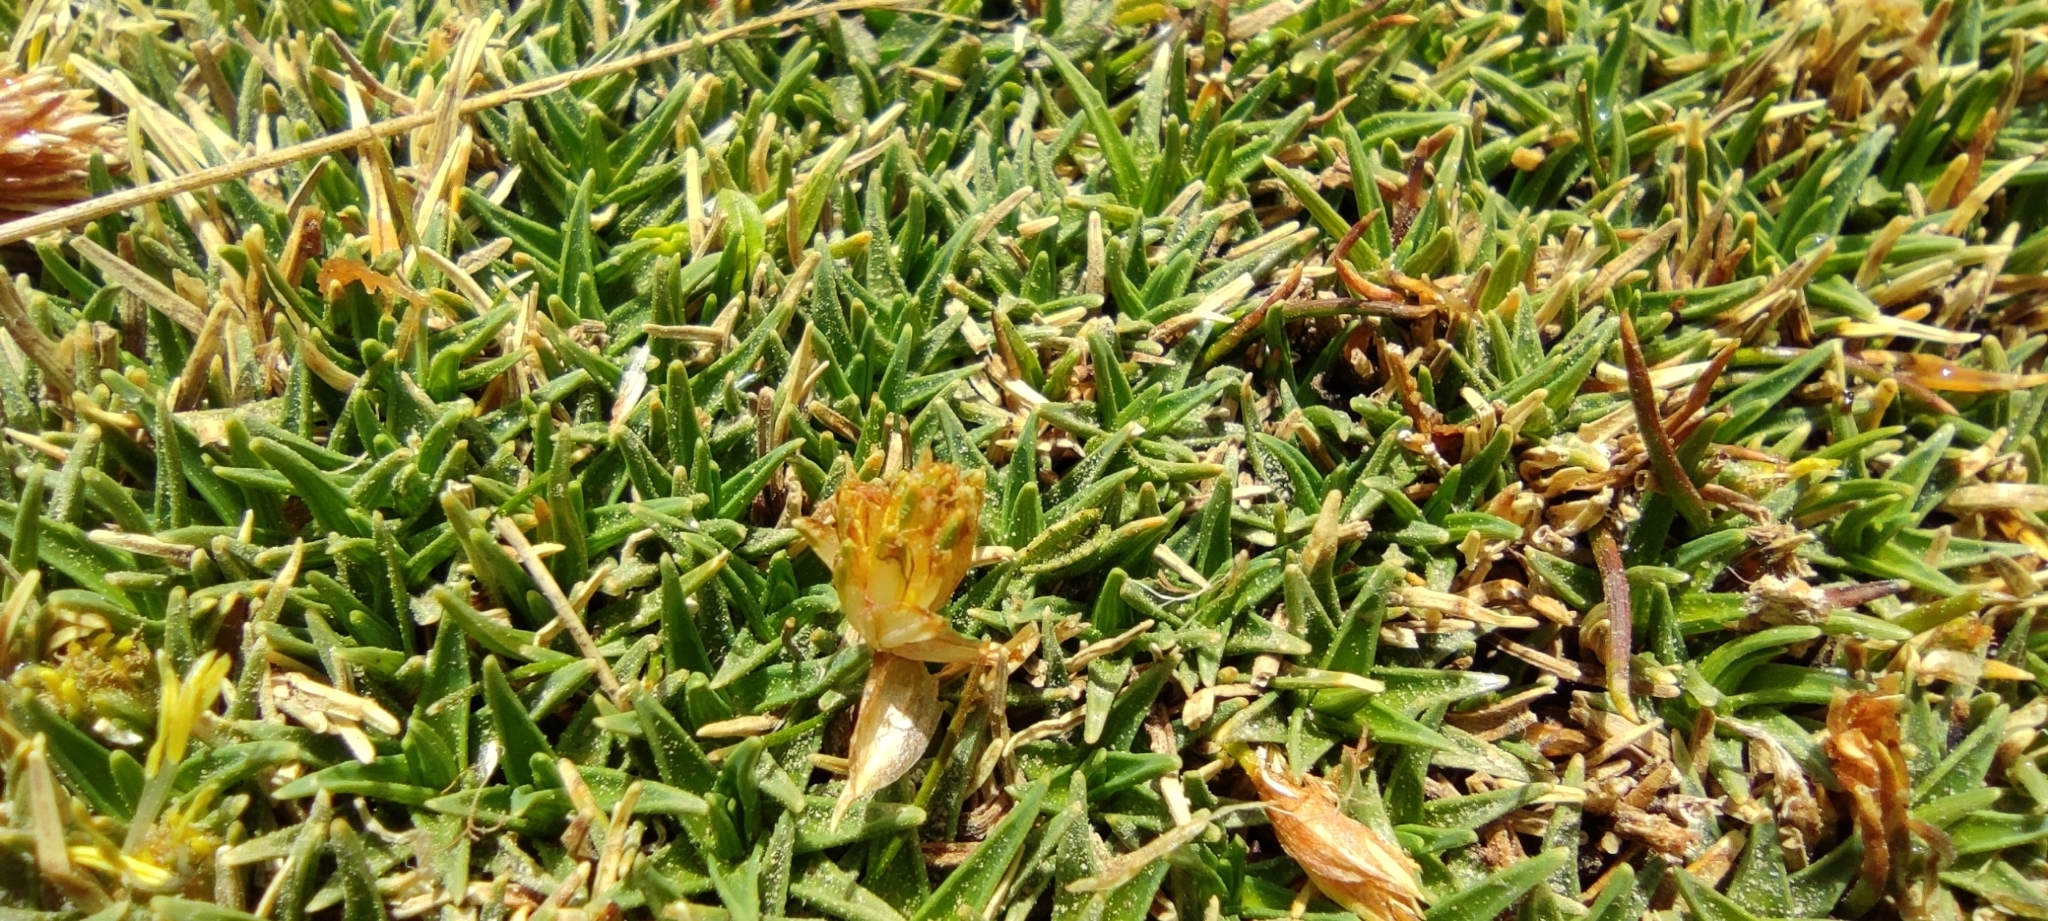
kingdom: Plantae
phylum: Tracheophyta
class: Liliopsida
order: Poales
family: Cyperaceae
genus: Phylloscirpus
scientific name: Phylloscirpus deserticola
